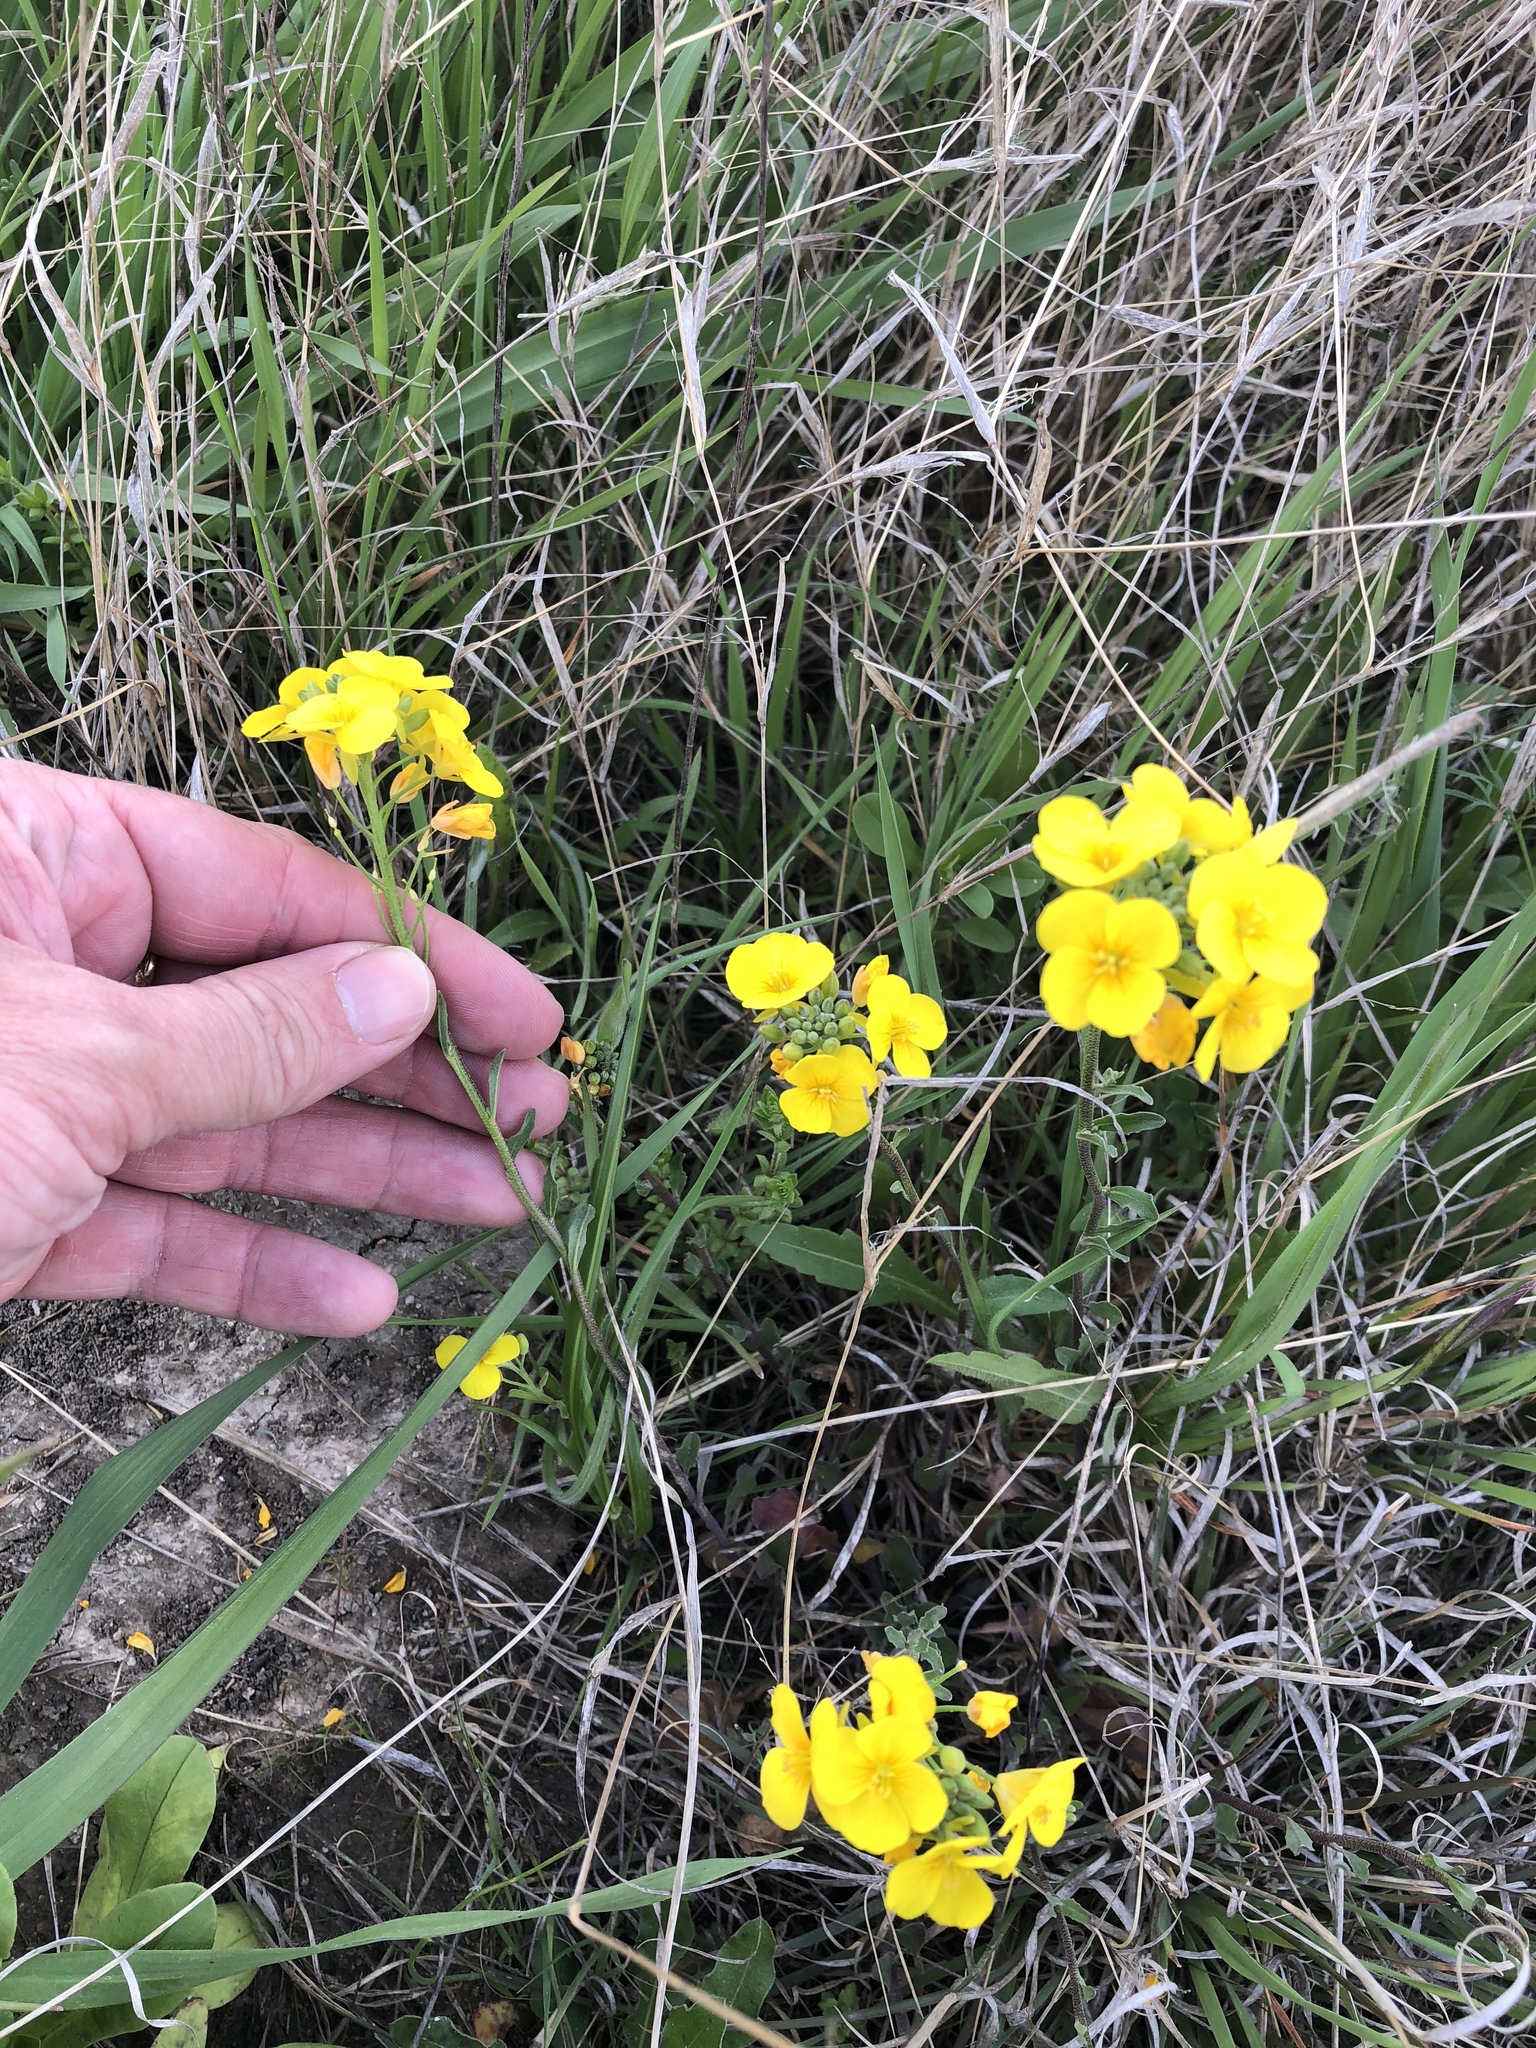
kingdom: Plantae
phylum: Tracheophyta
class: Magnoliopsida
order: Brassicales
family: Brassicaceae
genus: Physaria
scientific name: Physaria gracilis
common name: Spreading bladderpod
